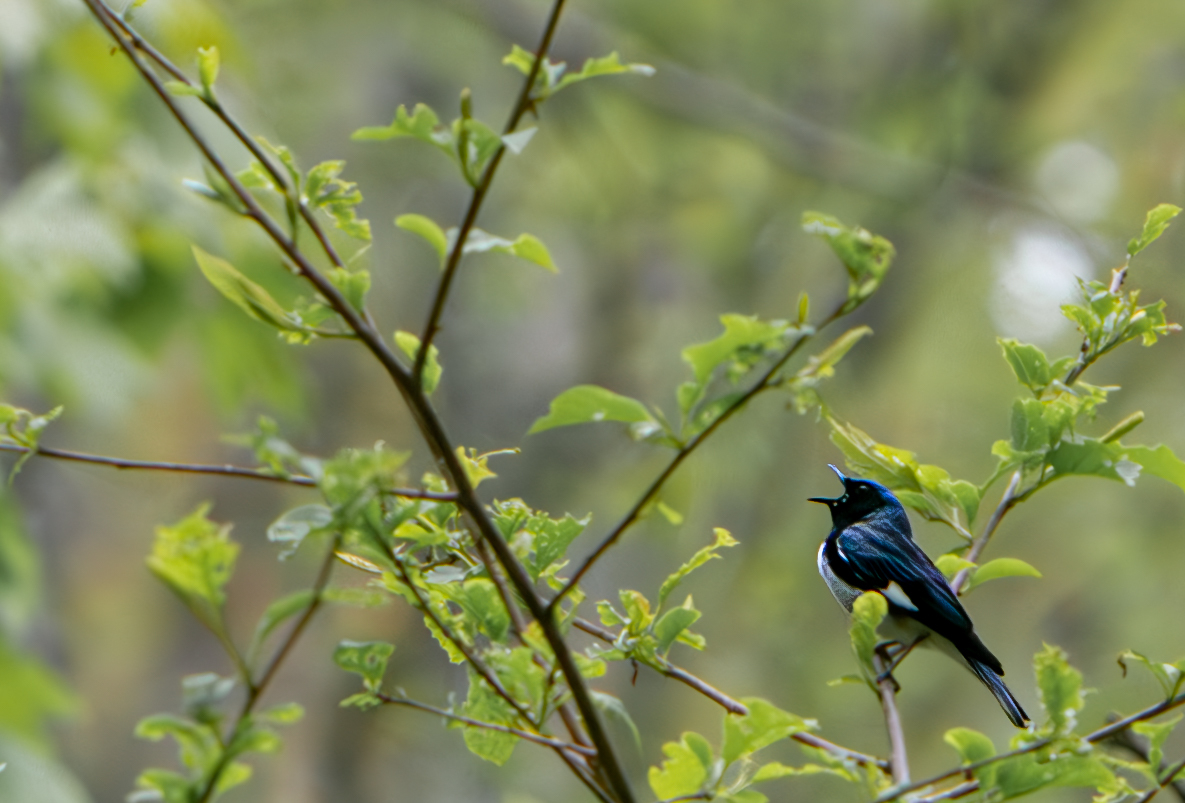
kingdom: Animalia
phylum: Chordata
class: Aves
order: Passeriformes
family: Parulidae
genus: Setophaga
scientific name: Setophaga caerulescens
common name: Black-throated blue warbler
